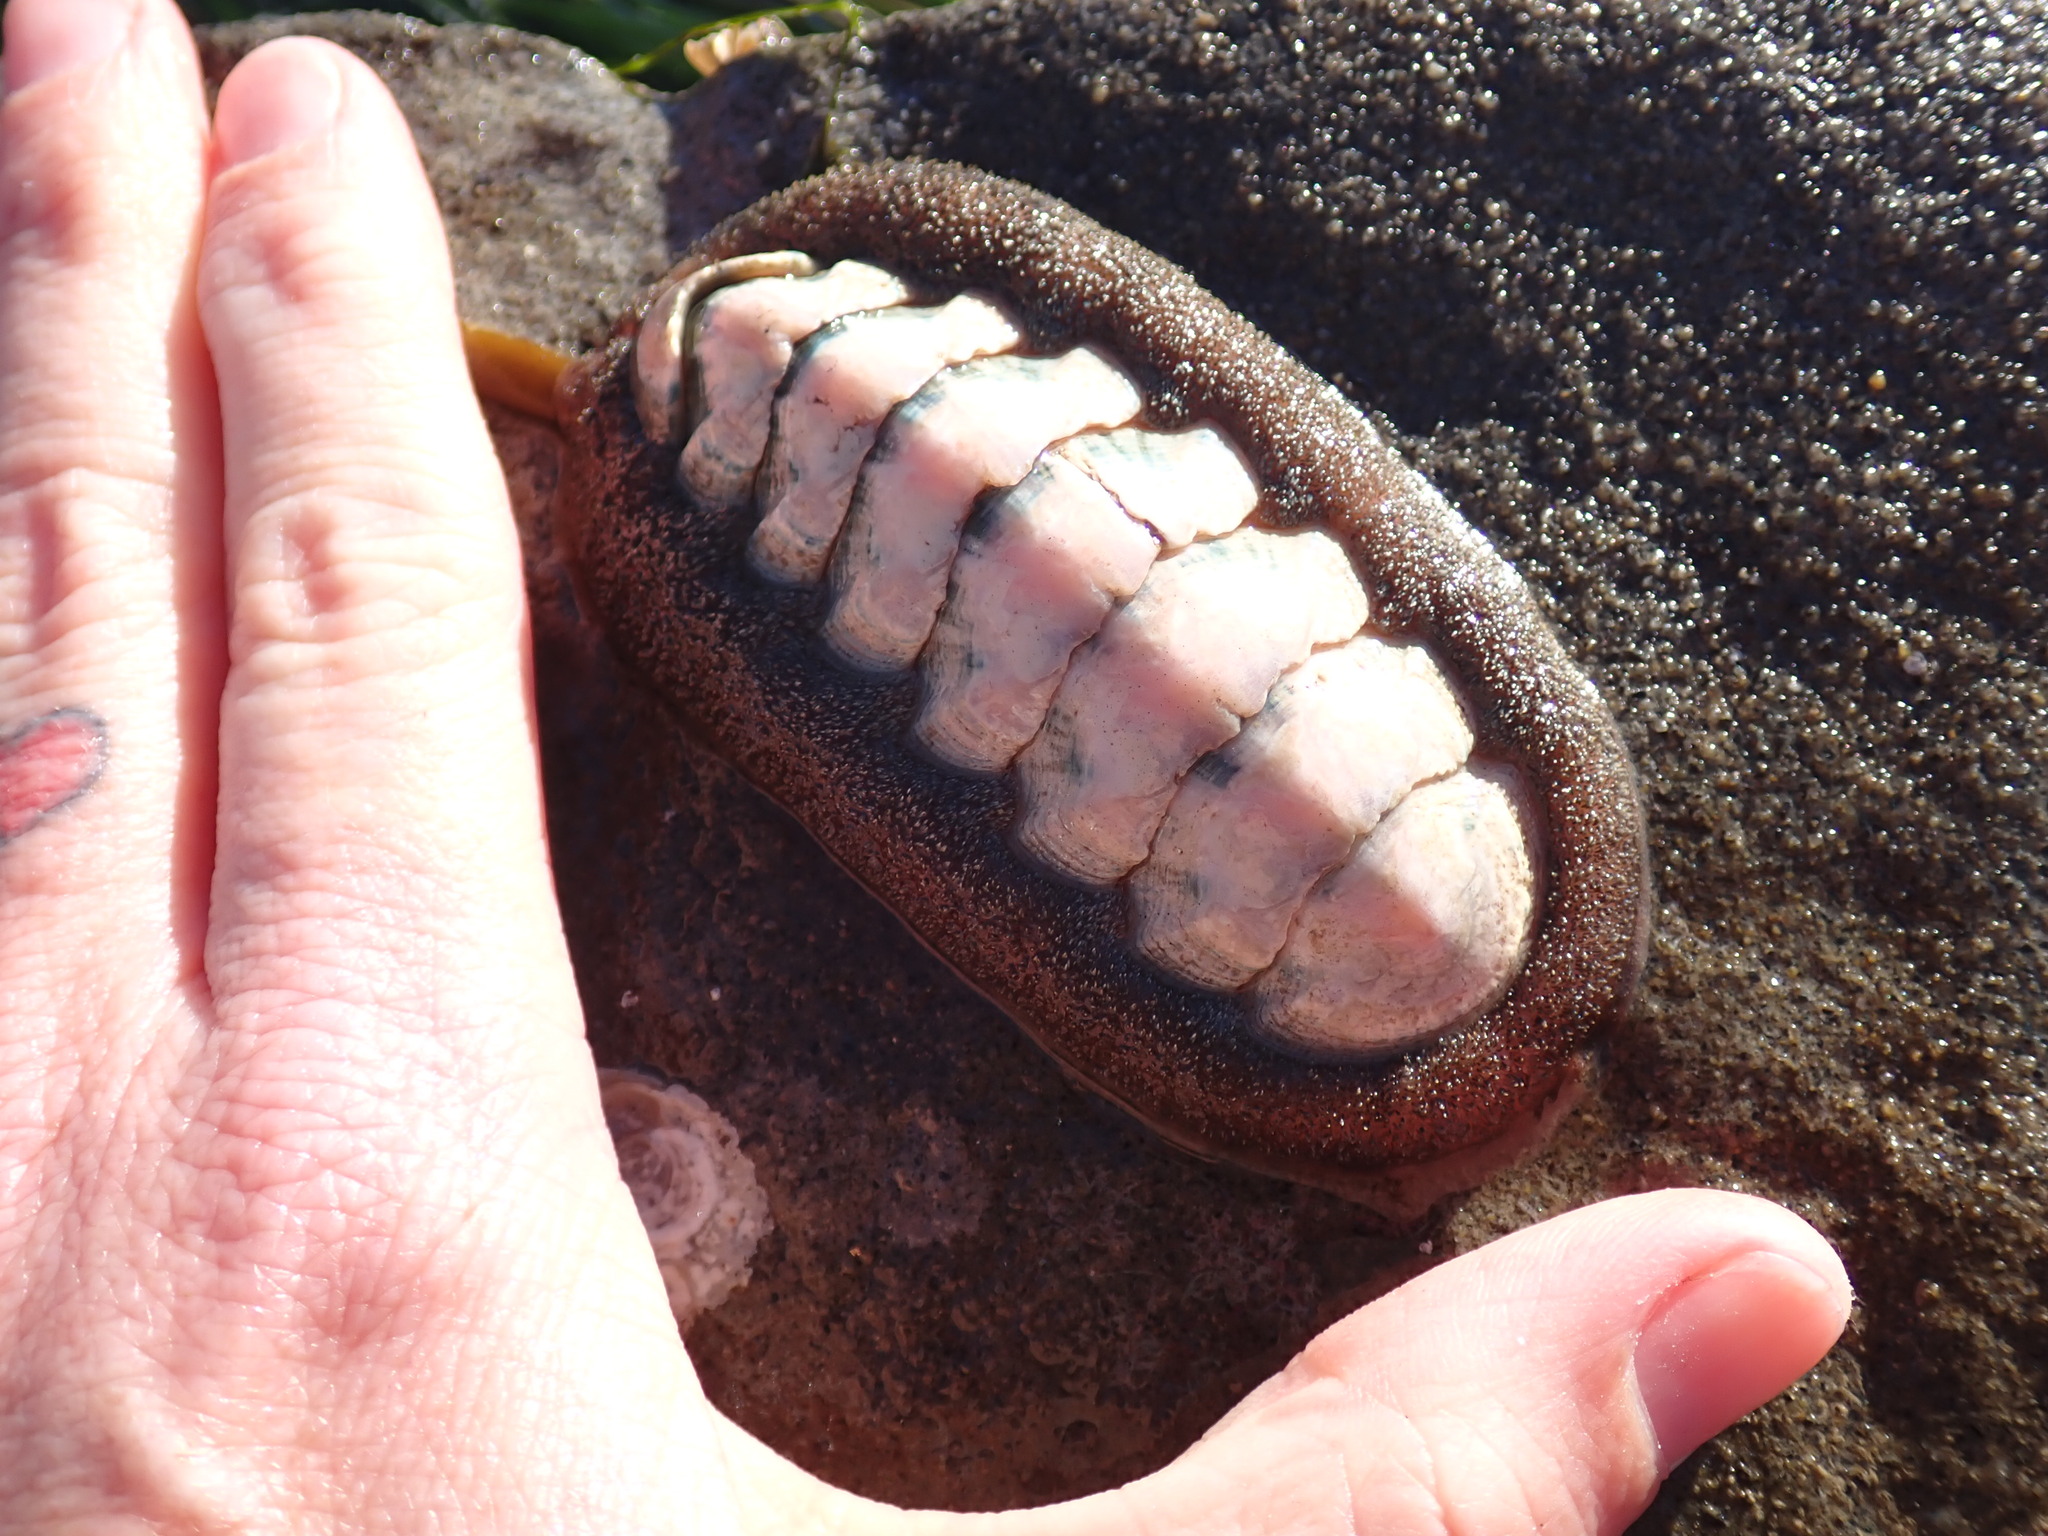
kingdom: Animalia
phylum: Mollusca
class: Polyplacophora
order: Chitonida
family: Ischnochitonidae
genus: Stenoplax
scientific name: Stenoplax conspicua
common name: Conspicuous chiton
